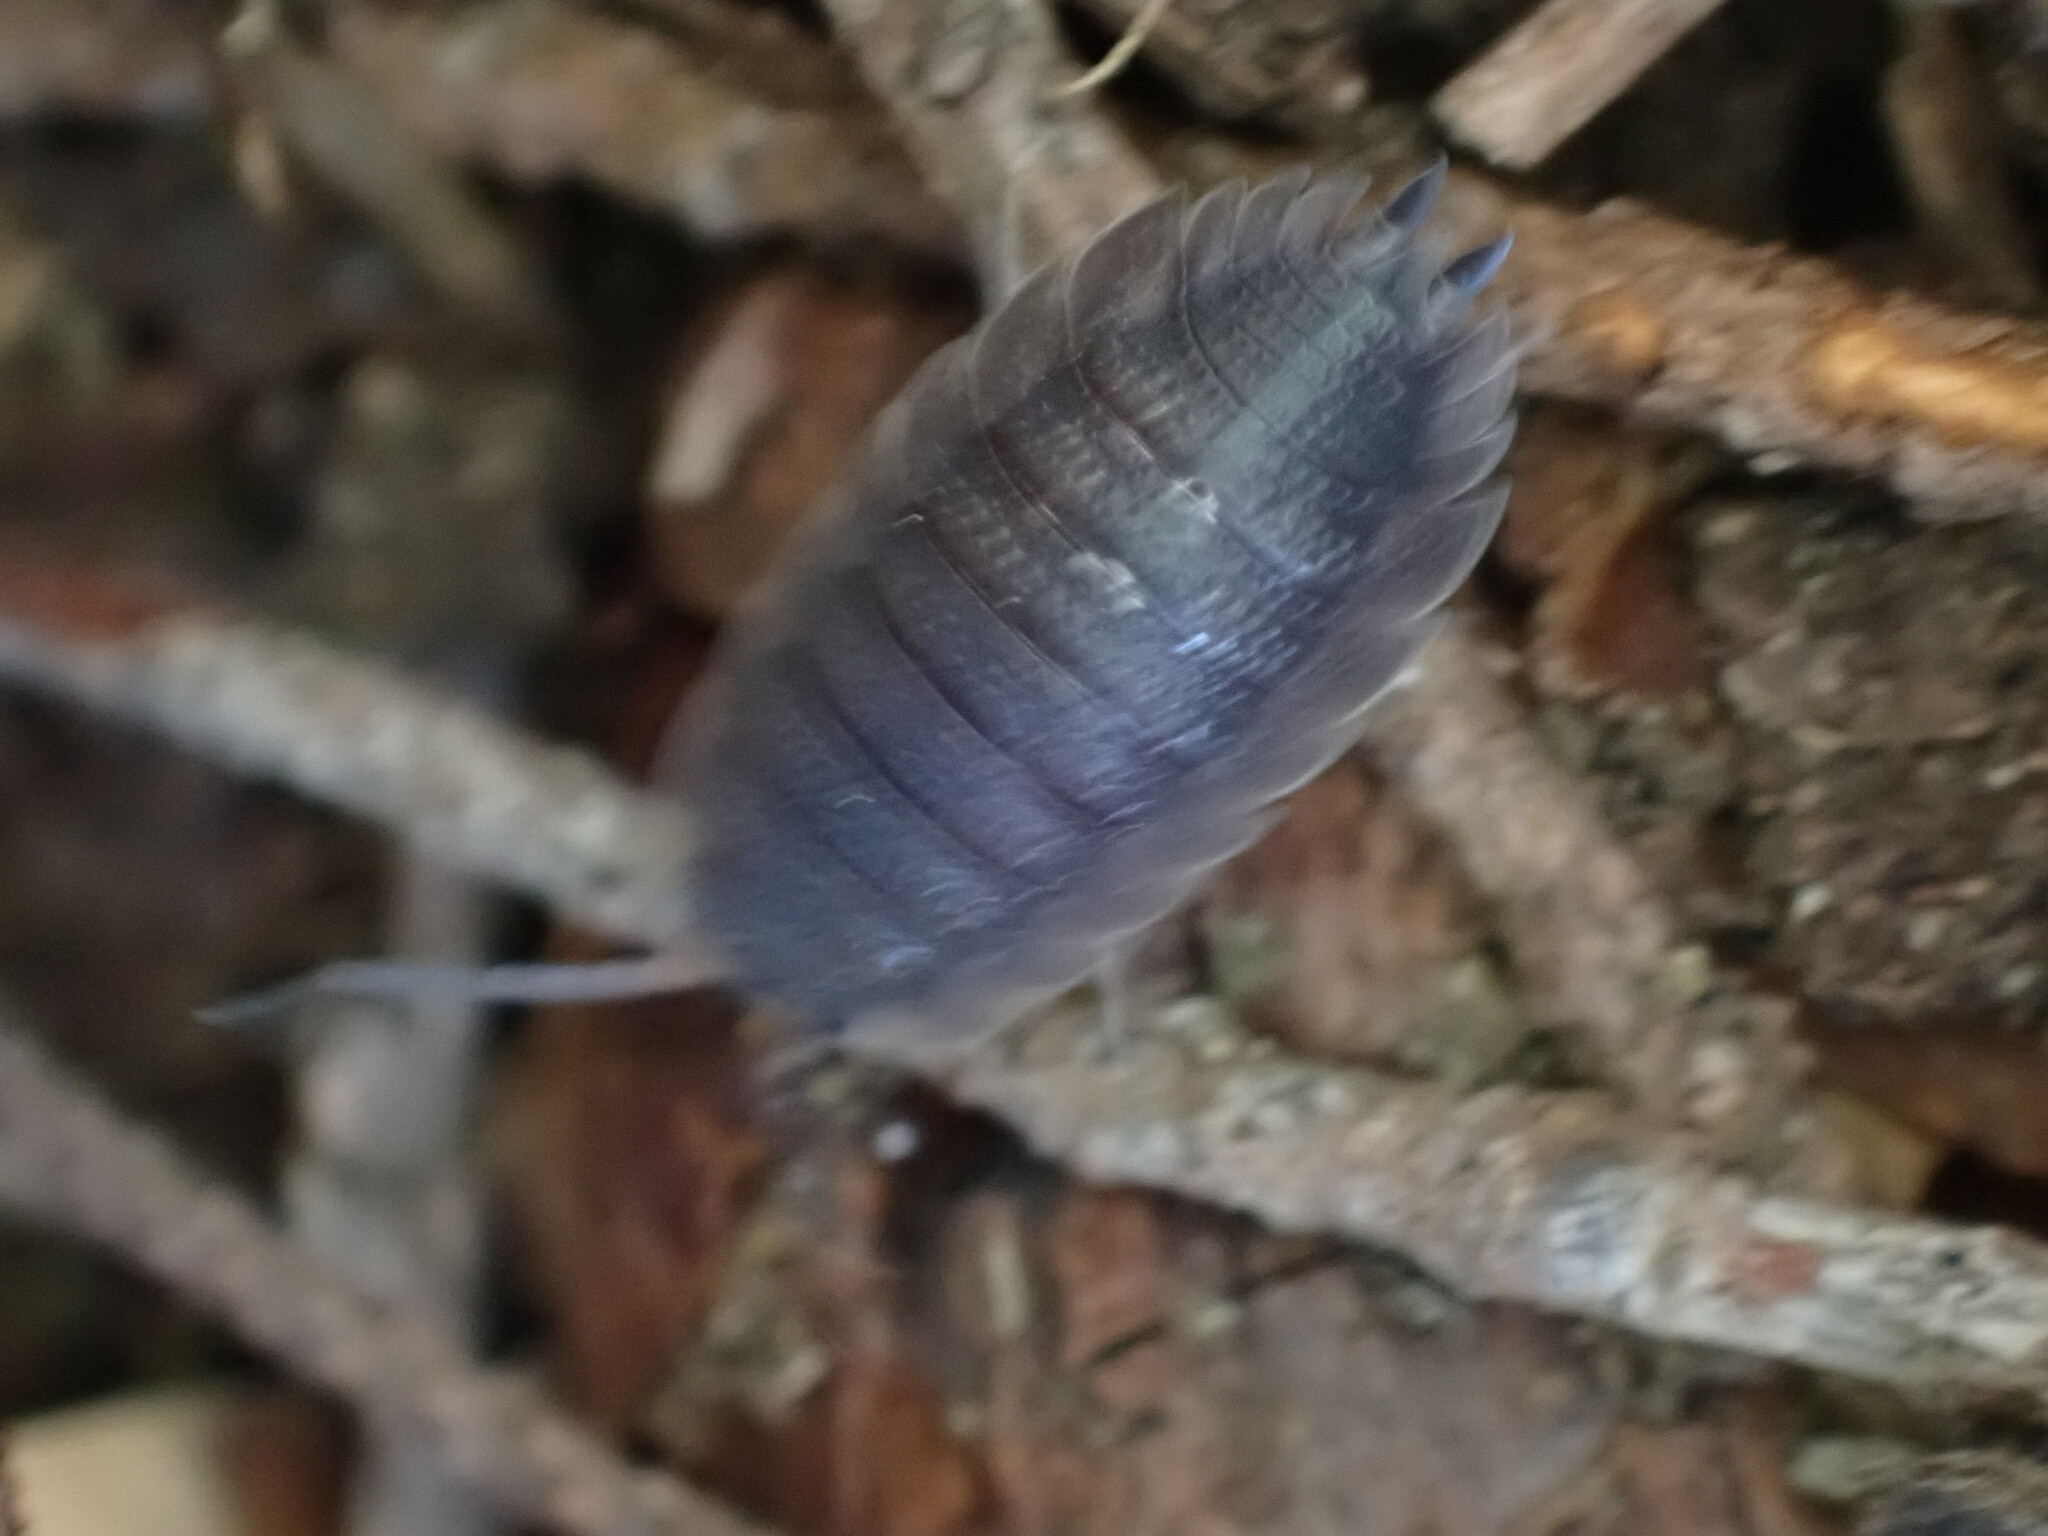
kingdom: Animalia
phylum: Arthropoda
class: Malacostraca
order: Isopoda
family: Porcellionidae
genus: Porcellio
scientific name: Porcellio scaber
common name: Common rough woodlouse
